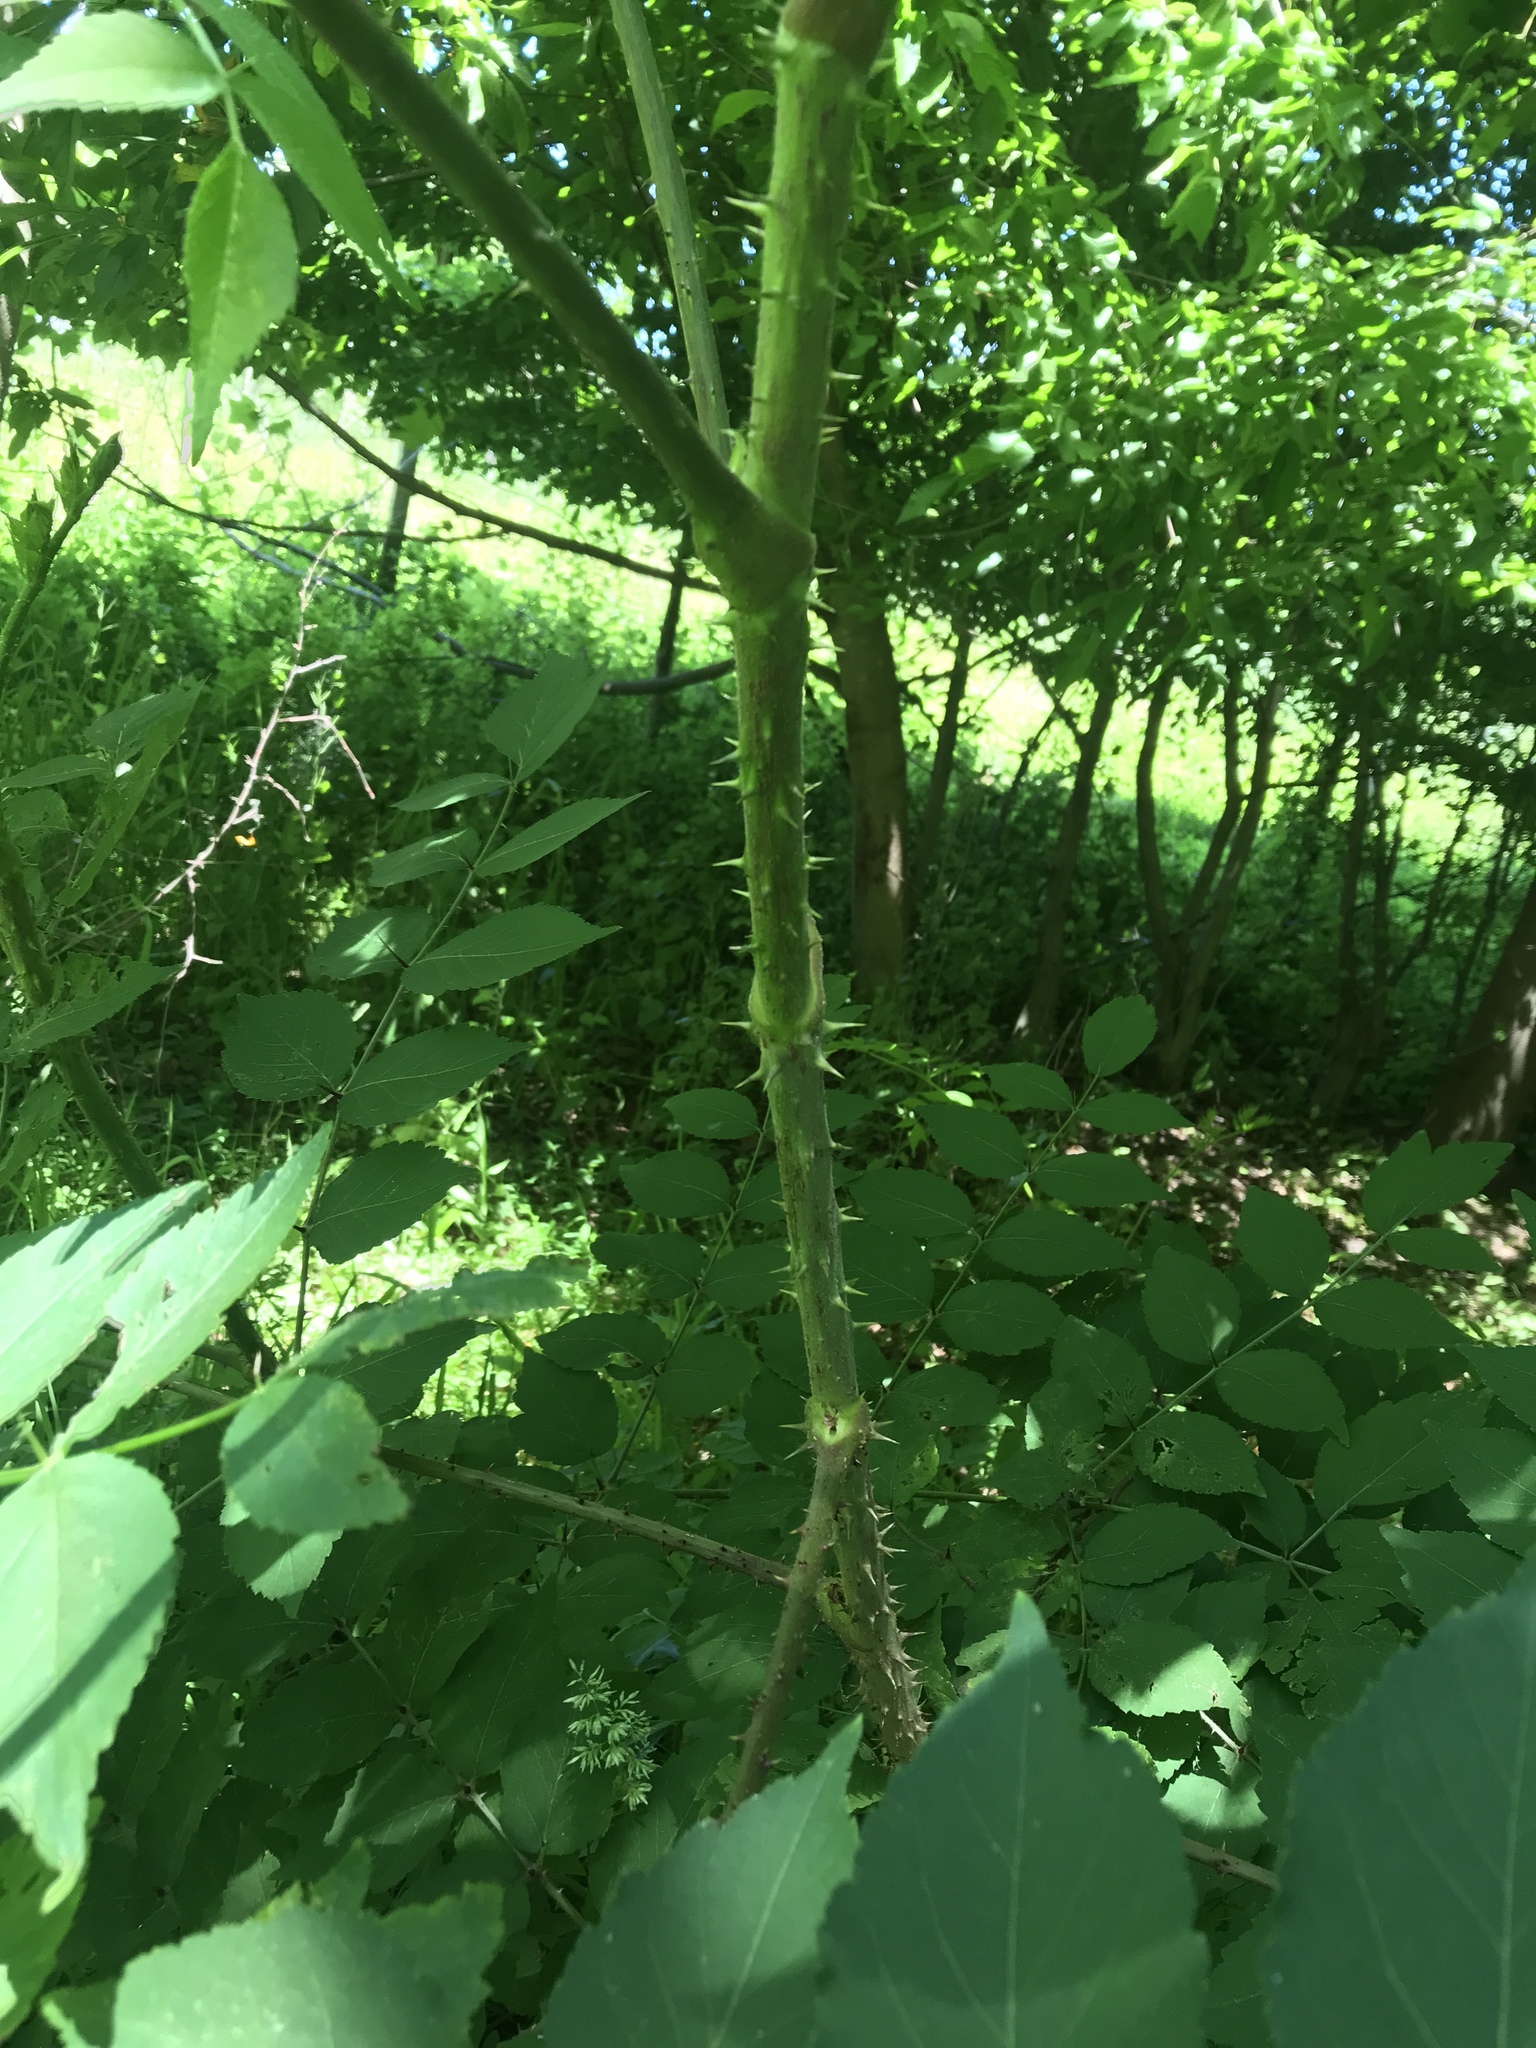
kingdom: Plantae
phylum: Tracheophyta
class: Magnoliopsida
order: Apiales
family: Araliaceae
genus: Aralia
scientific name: Aralia elata
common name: Japanese angelica-tree
